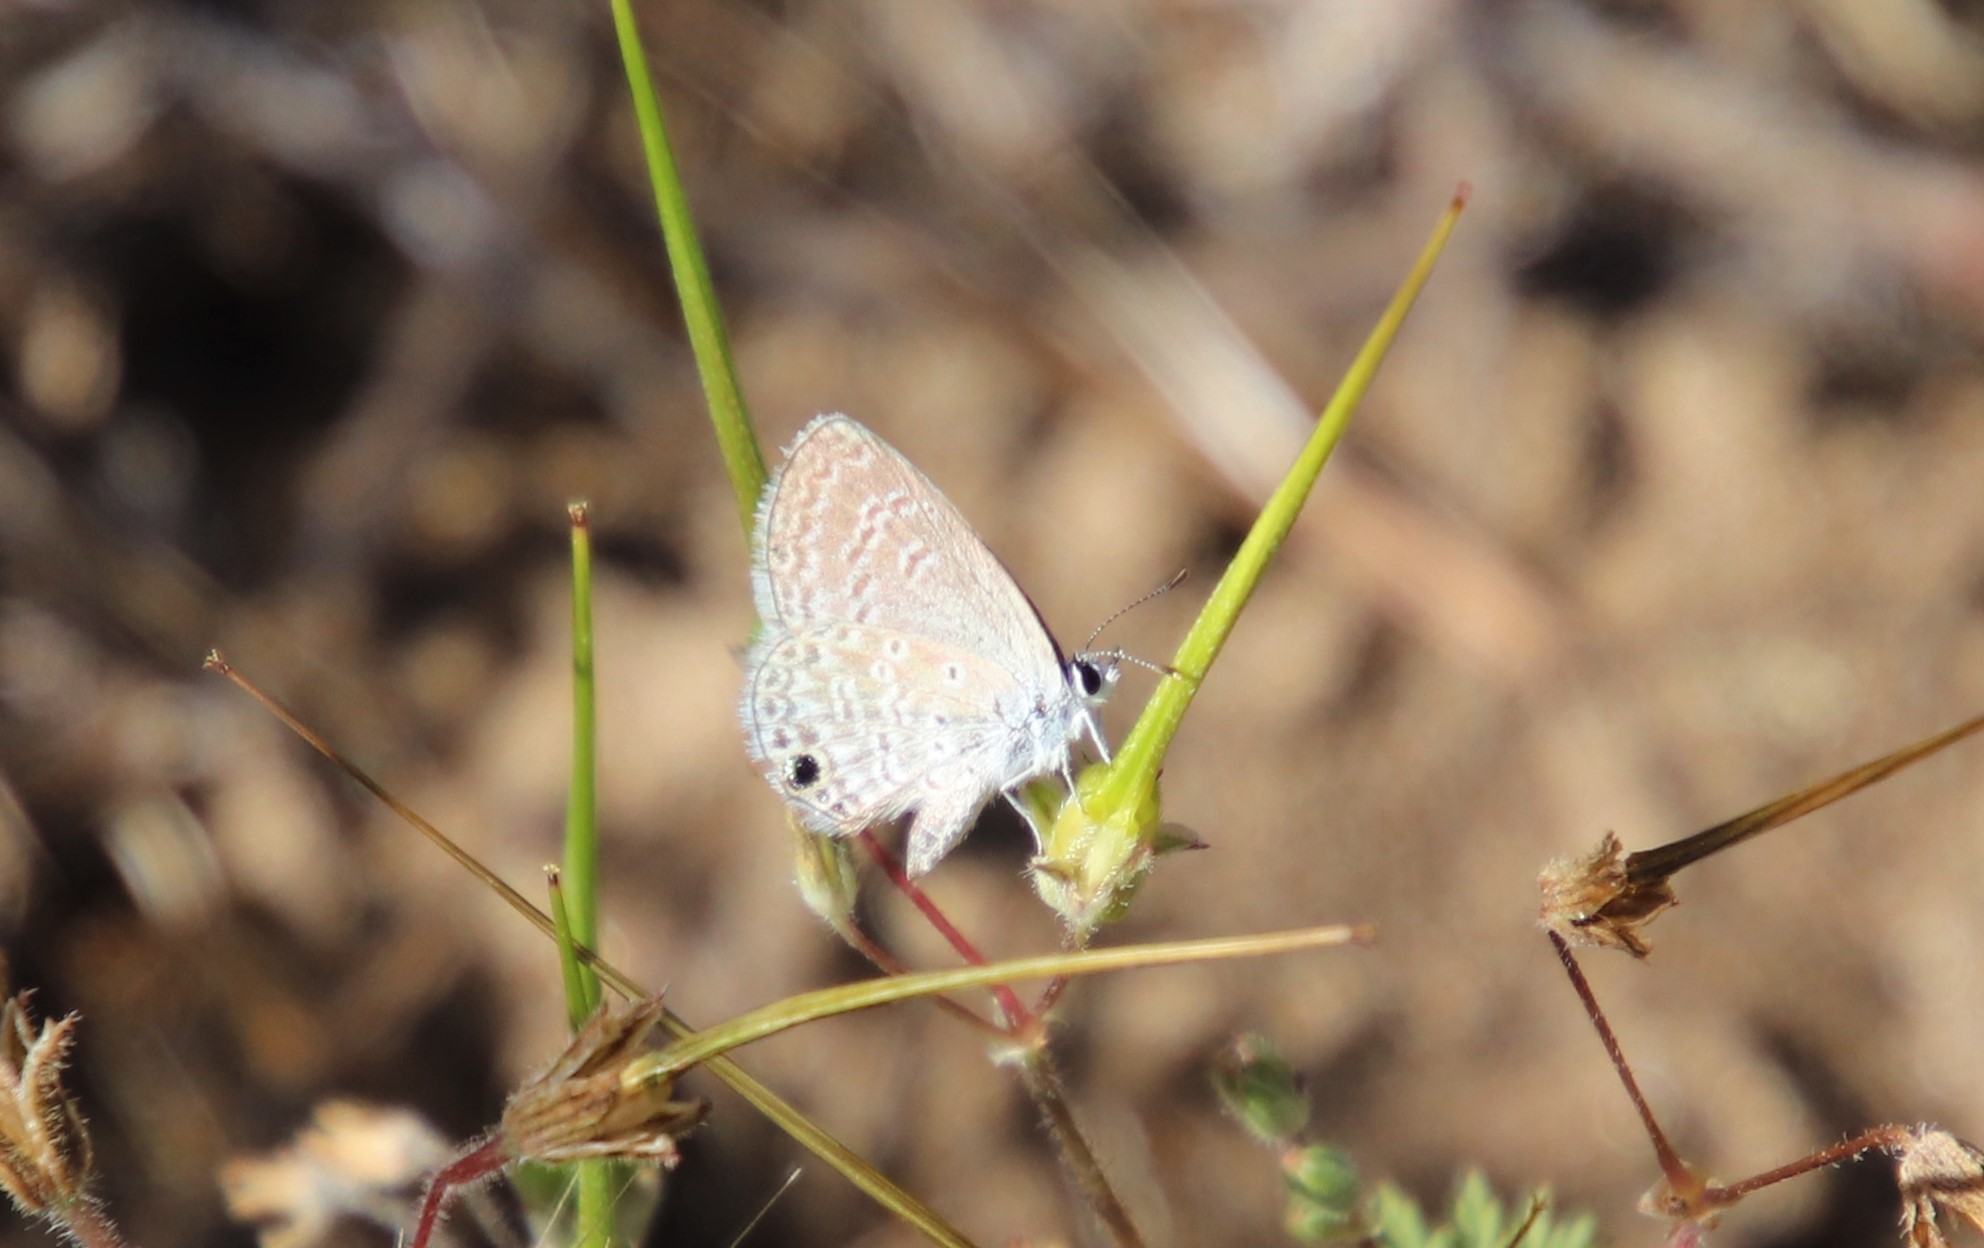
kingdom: Animalia
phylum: Arthropoda
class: Insecta
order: Lepidoptera
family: Lycaenidae
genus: Hemiargus
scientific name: Hemiargus ceraunus
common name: Ceraunus blue
